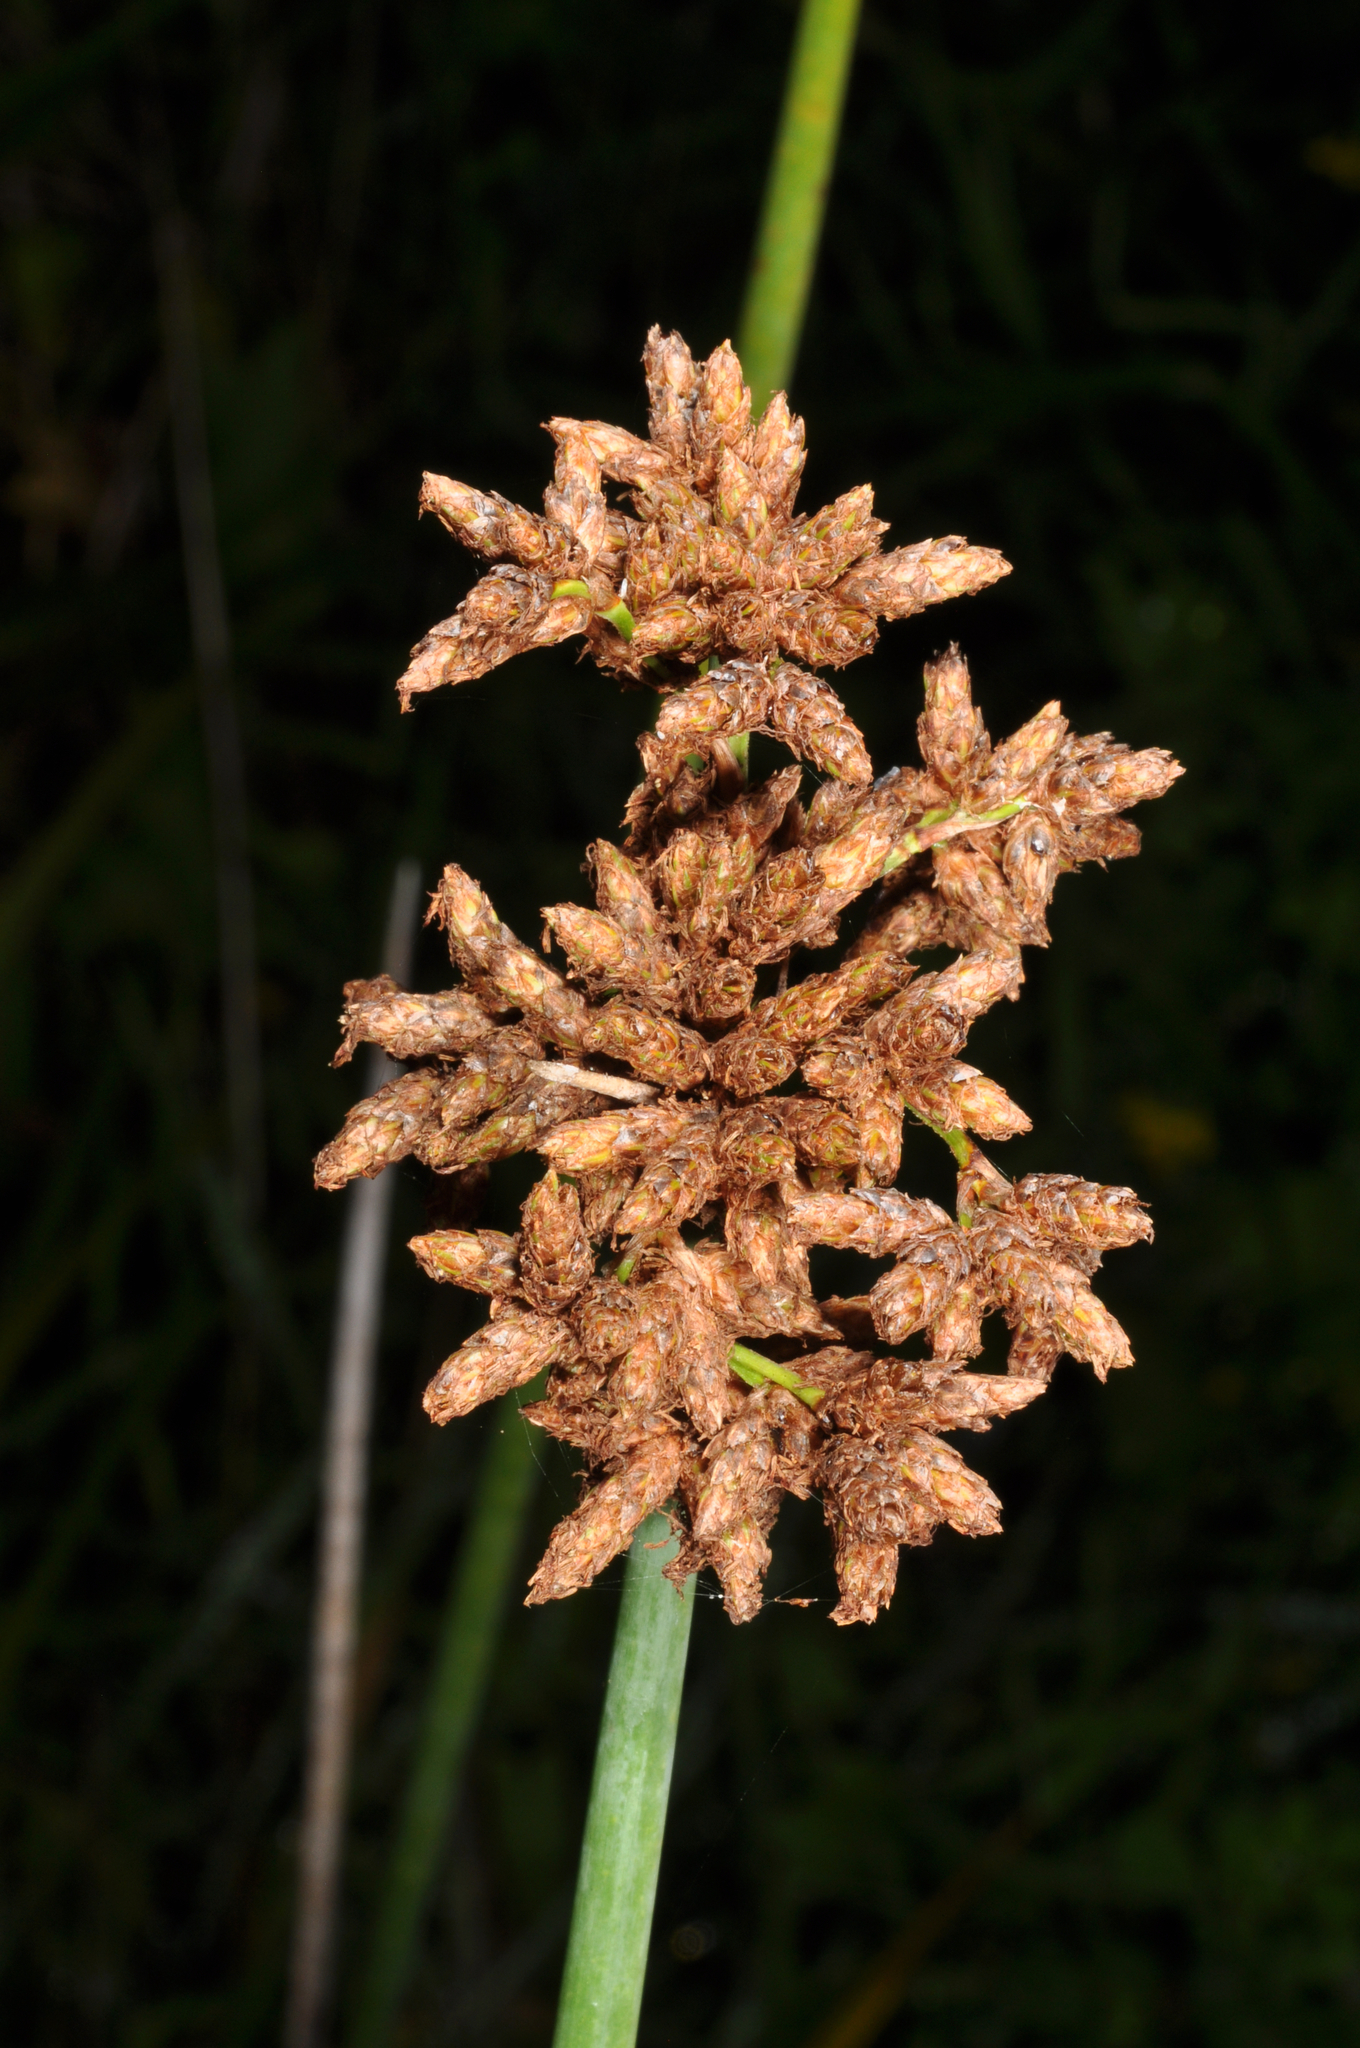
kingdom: Plantae
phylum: Tracheophyta
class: Liliopsida
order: Poales
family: Cyperaceae
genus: Schoenoplectus
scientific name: Schoenoplectus tabernaemontani
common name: Grey club-rush
